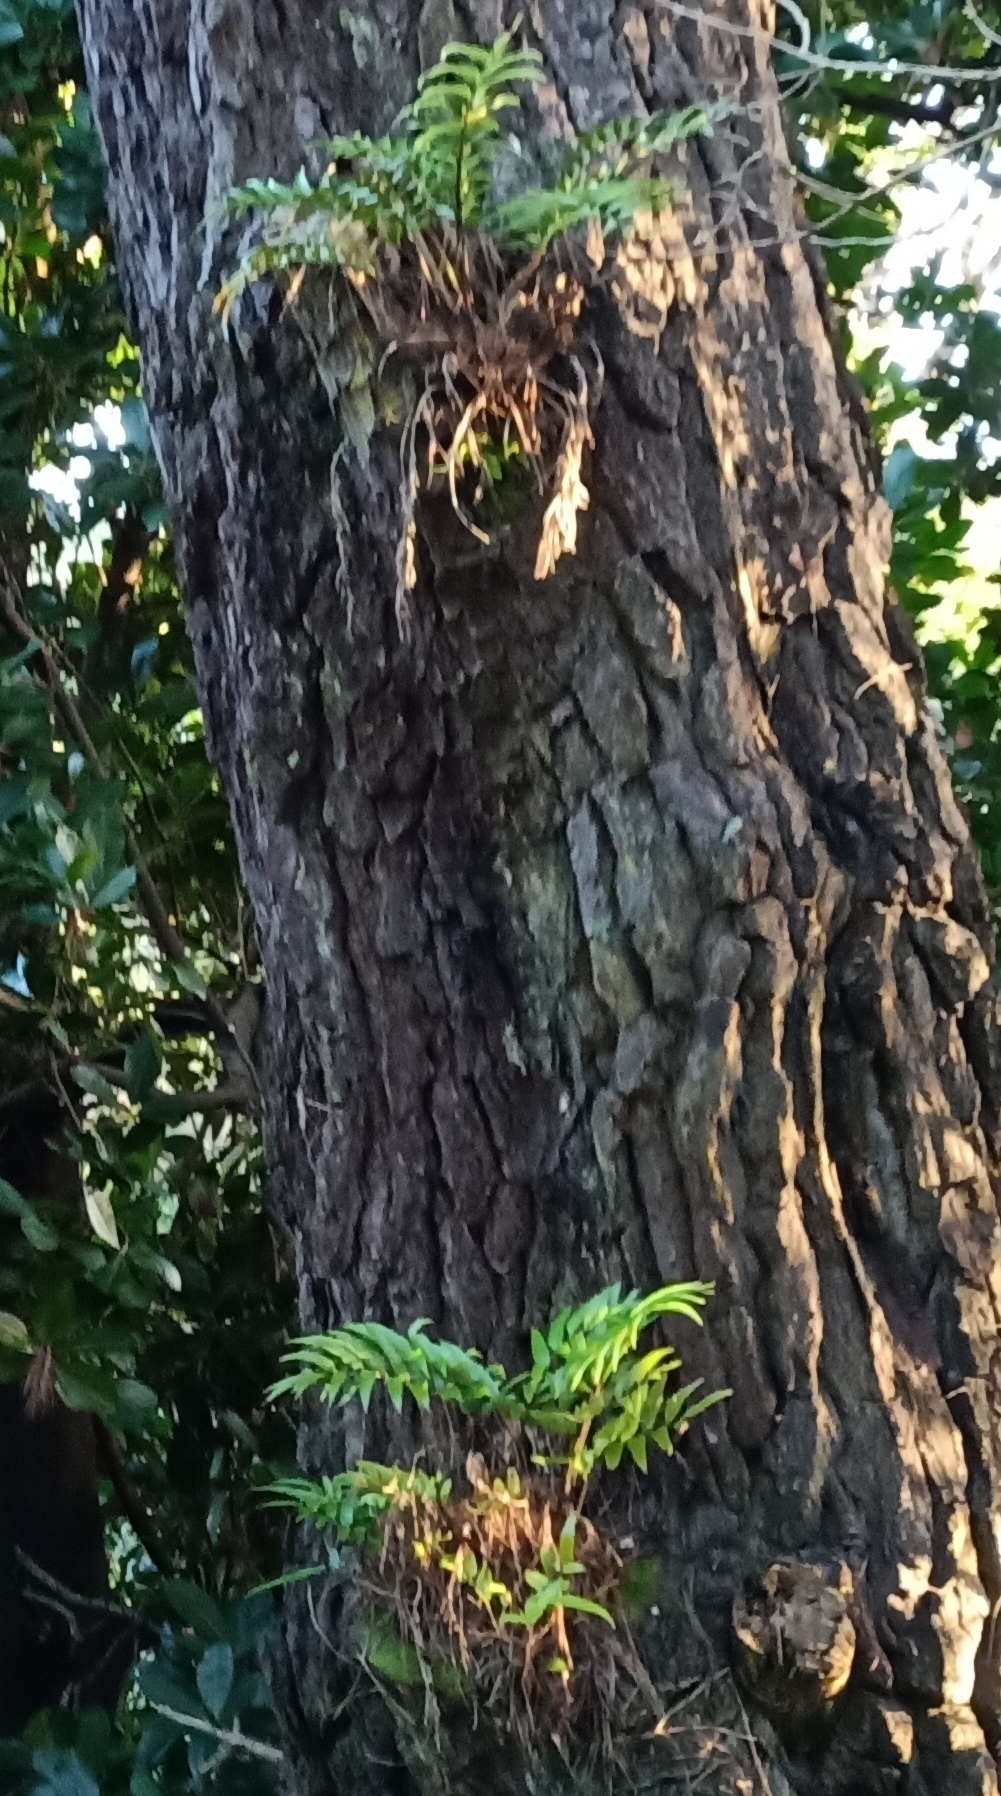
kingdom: Plantae
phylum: Tracheophyta
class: Polypodiopsida
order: Polypodiales
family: Aspleniaceae
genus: Asplenium
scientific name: Asplenium oblongifolium
